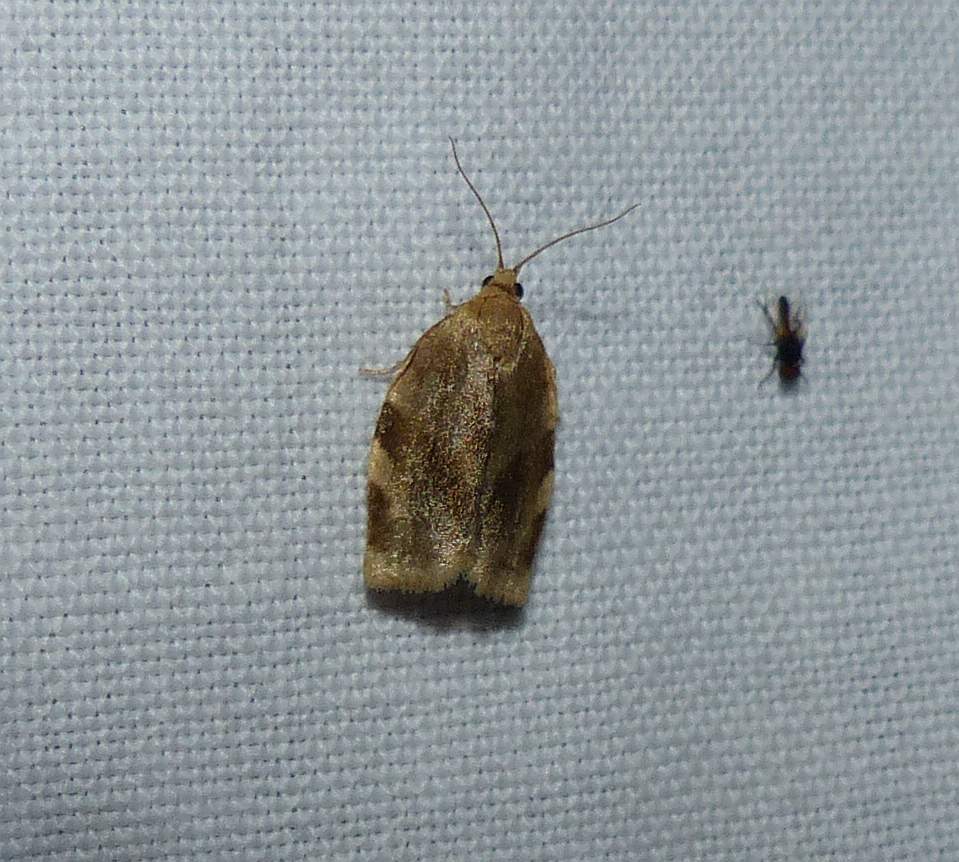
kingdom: Animalia
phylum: Arthropoda
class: Insecta
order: Lepidoptera
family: Tortricidae
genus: Choristoneura
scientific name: Choristoneura fractivittana
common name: Broken-banded leafroller moth
